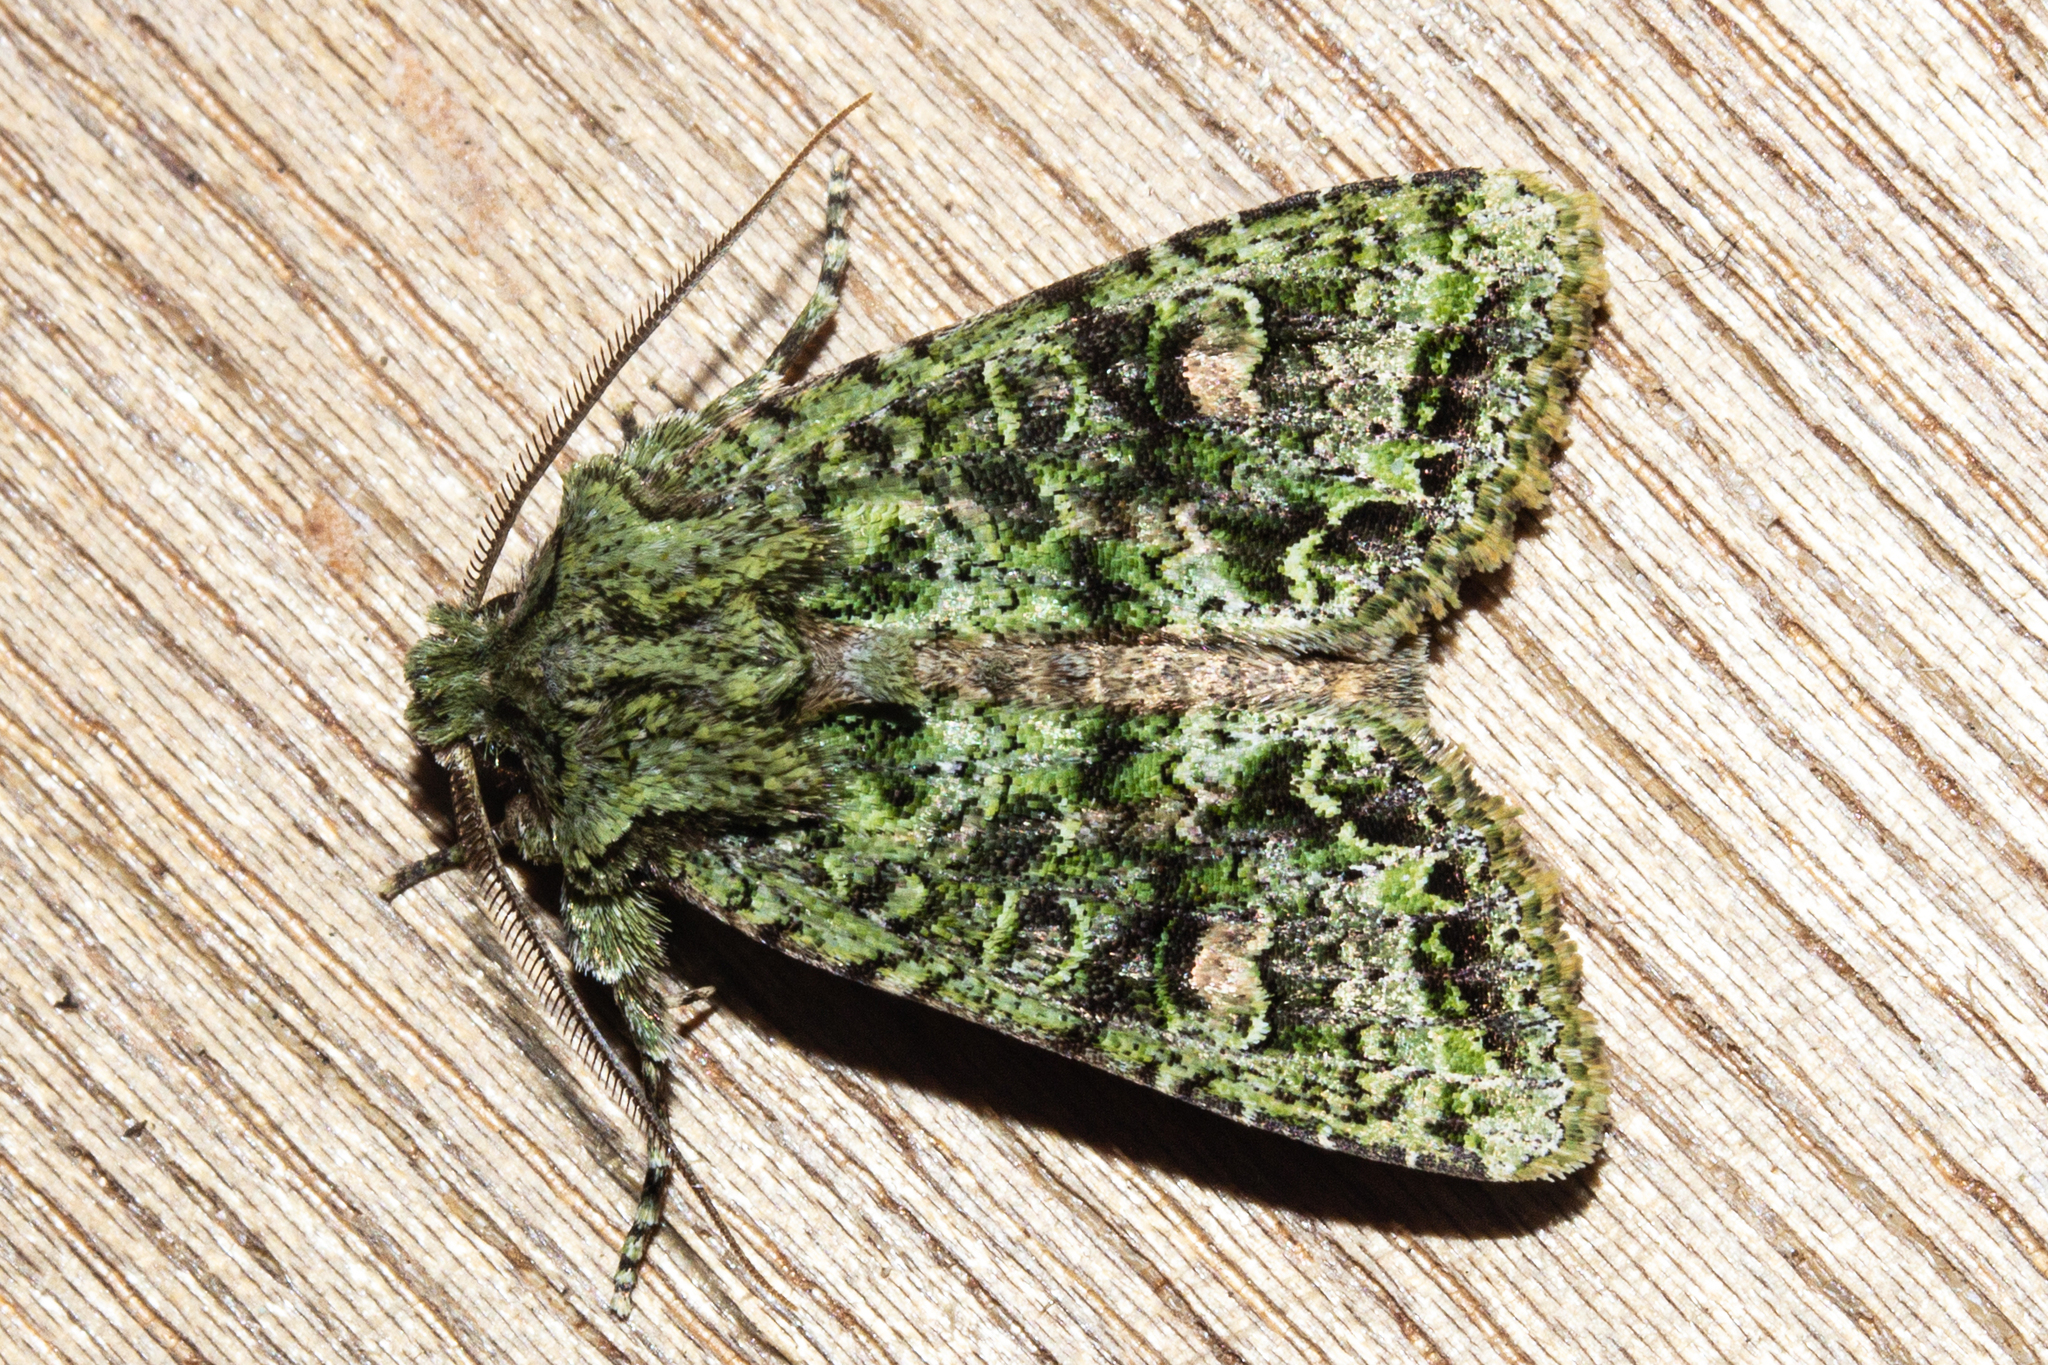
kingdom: Animalia
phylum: Arthropoda
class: Insecta
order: Lepidoptera
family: Noctuidae
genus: Ichneutica
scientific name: Ichneutica
